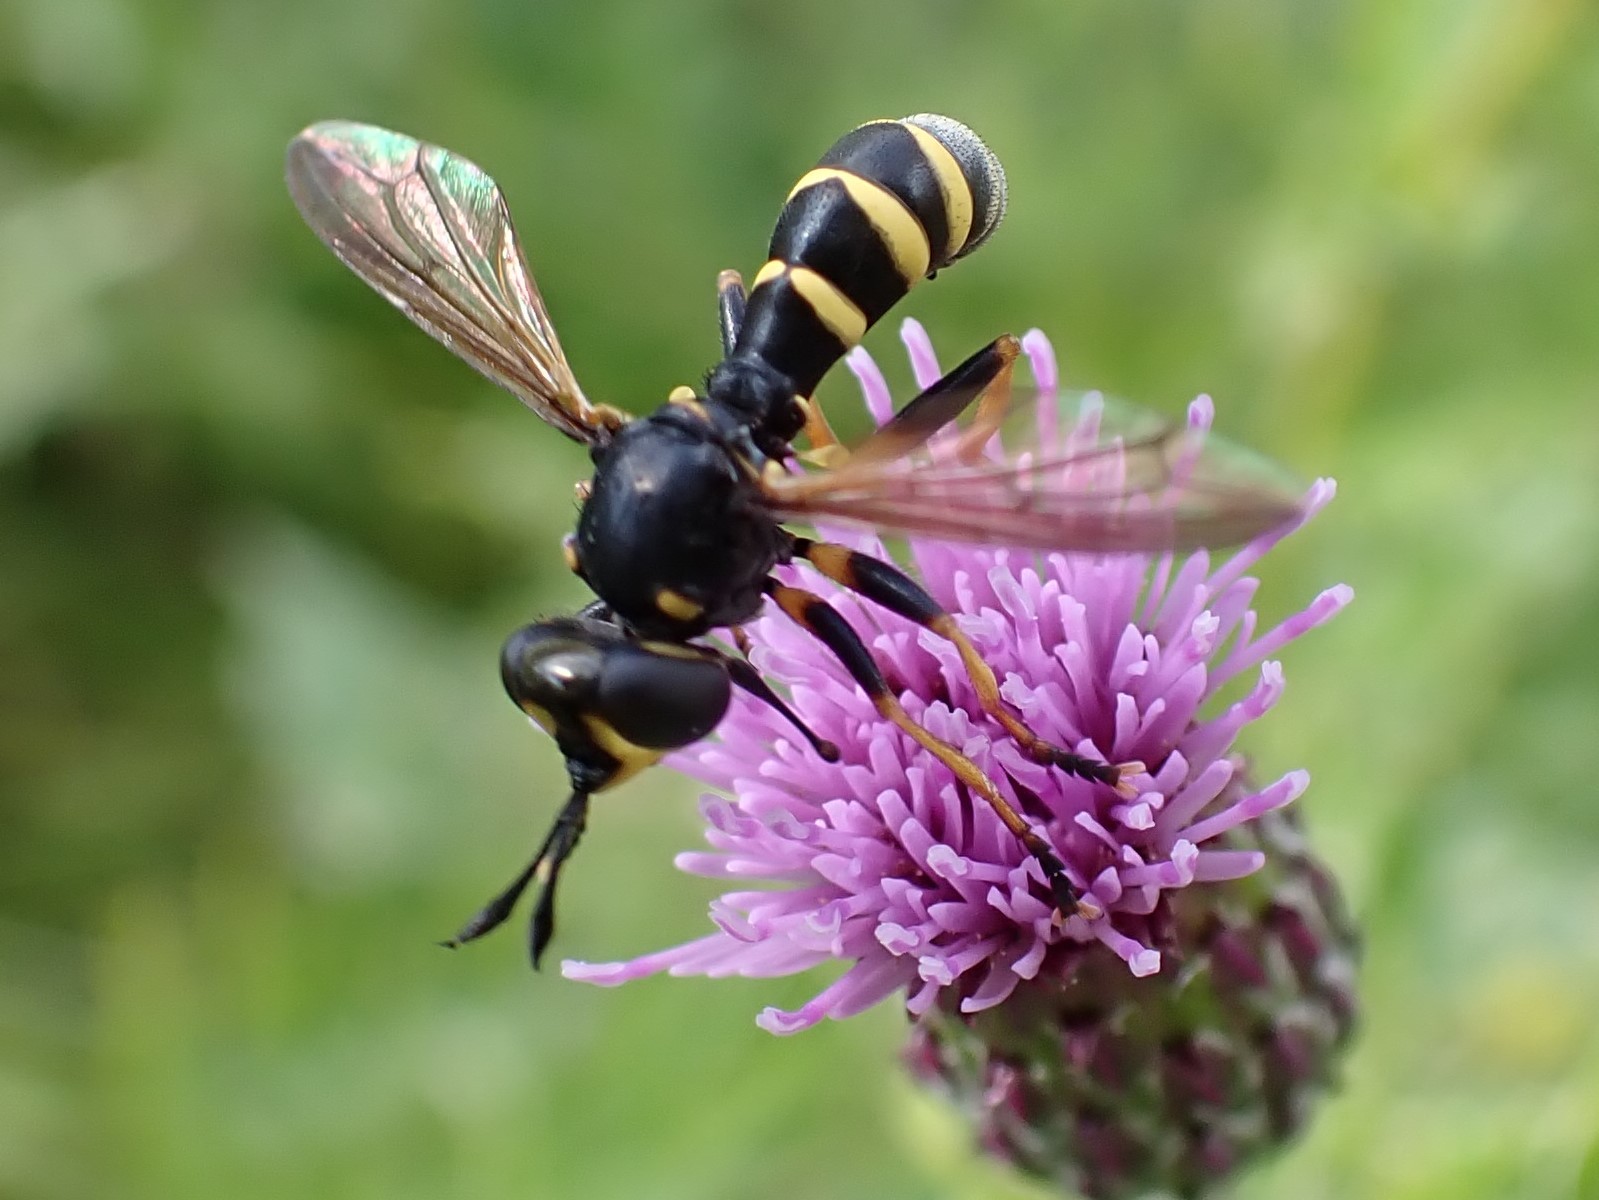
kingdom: Animalia
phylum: Arthropoda
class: Insecta
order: Diptera
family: Conopidae
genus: Conops
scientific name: Conops flavipes
